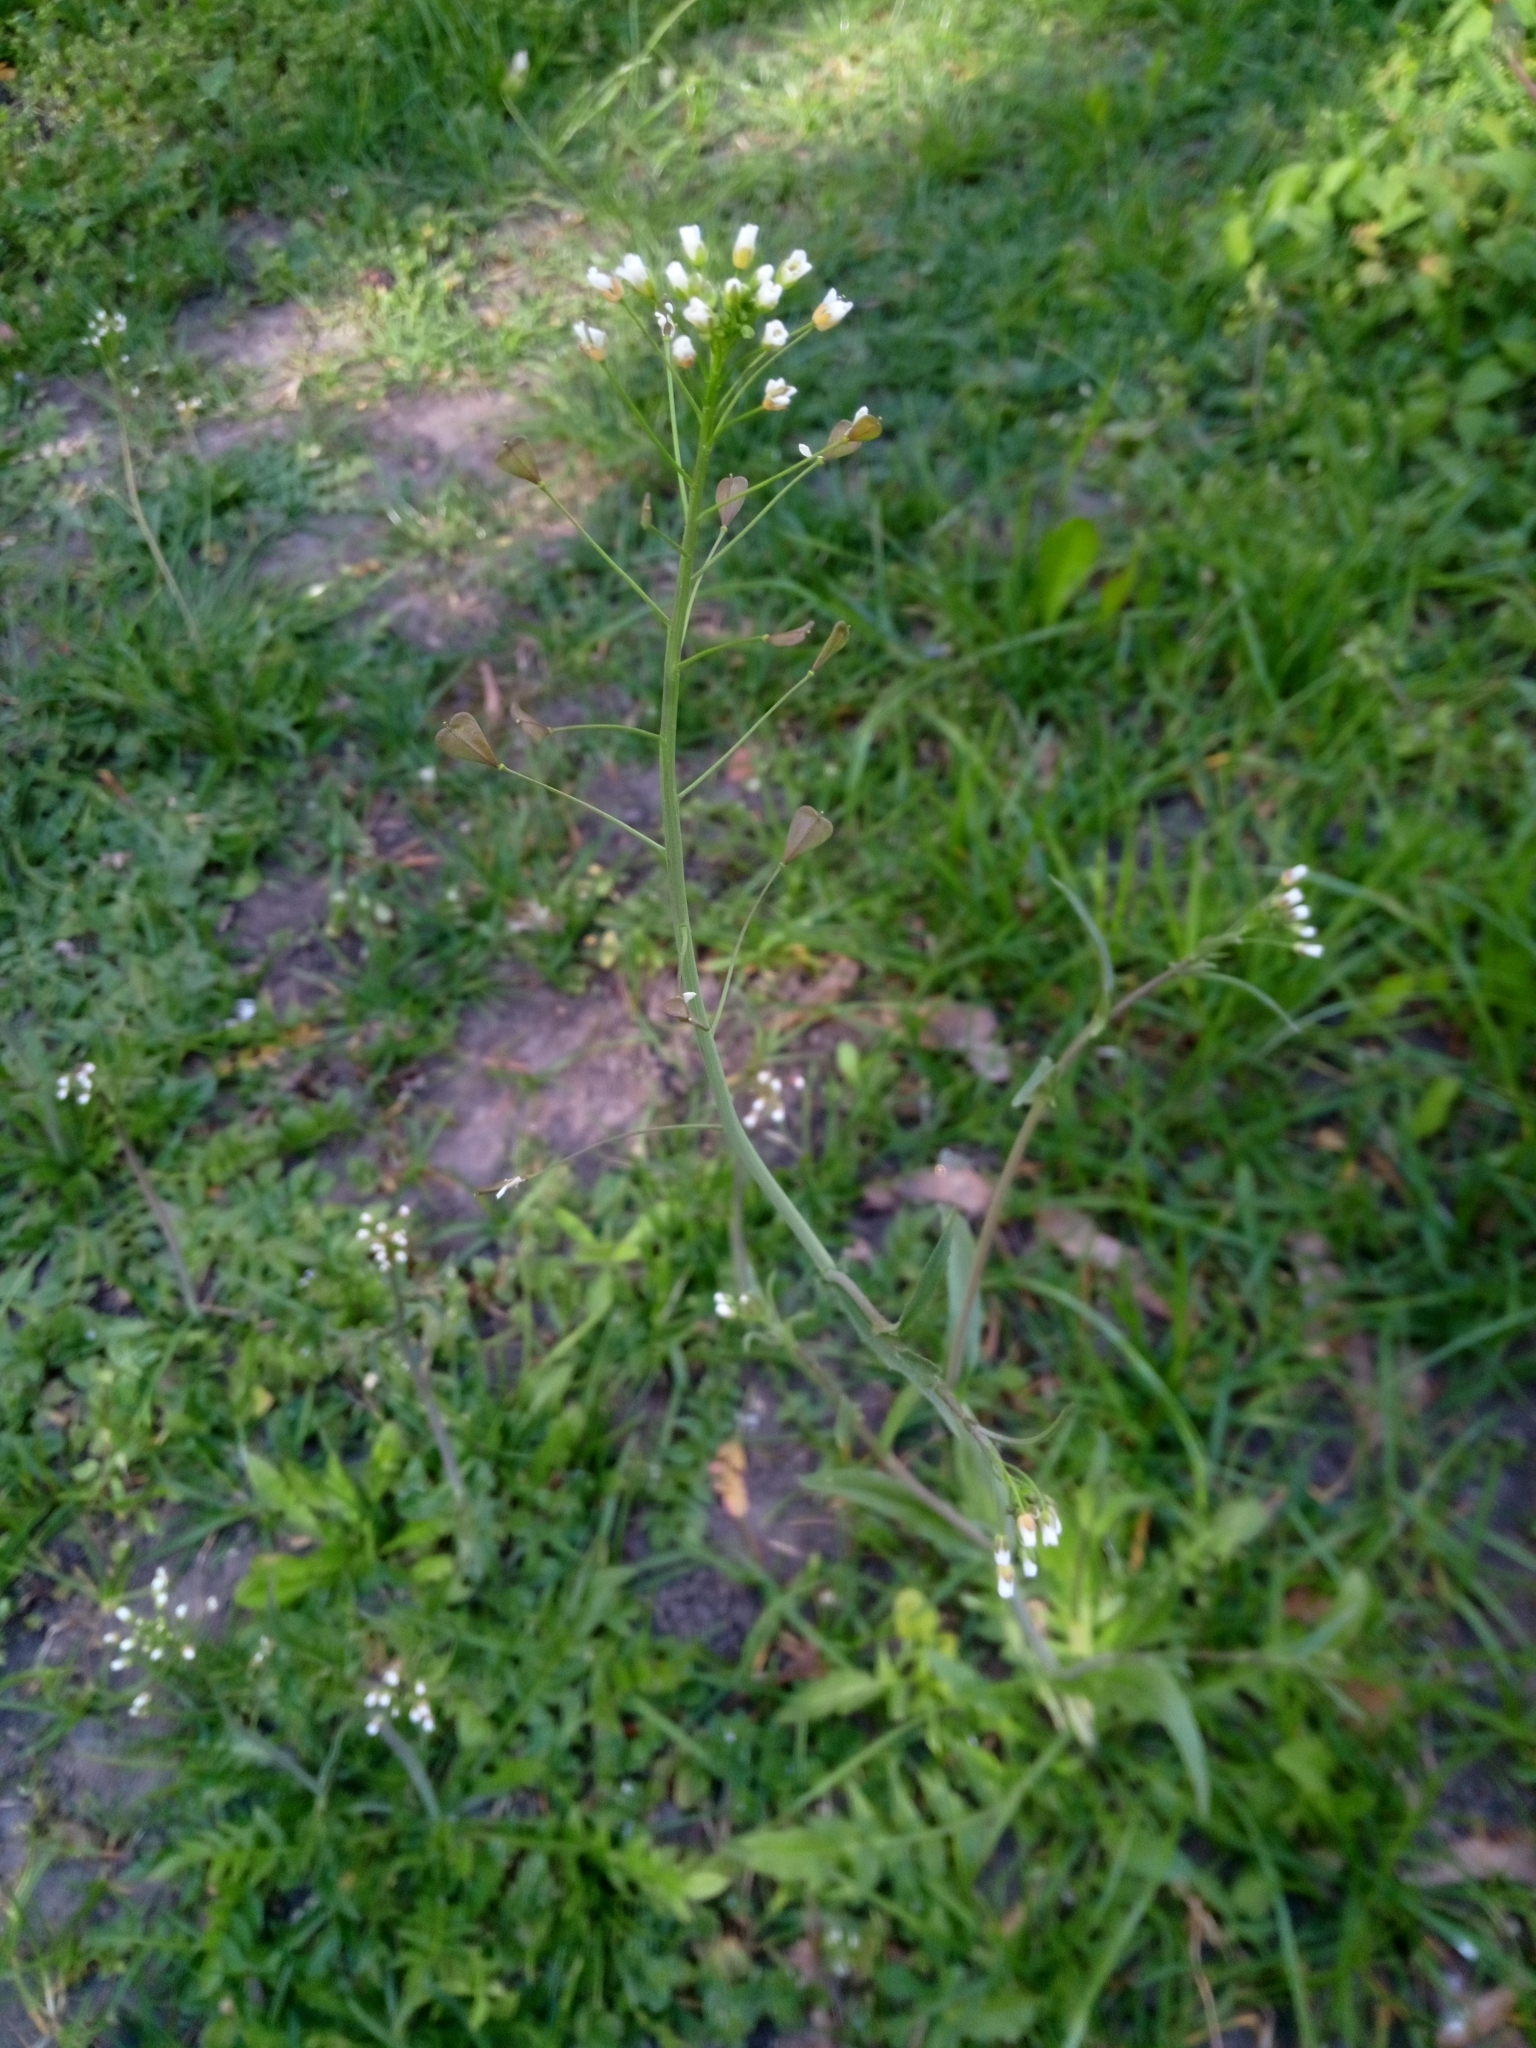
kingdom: Plantae
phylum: Tracheophyta
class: Magnoliopsida
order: Brassicales
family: Brassicaceae
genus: Capsella
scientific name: Capsella bursa-pastoris
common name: Shepherd's purse
